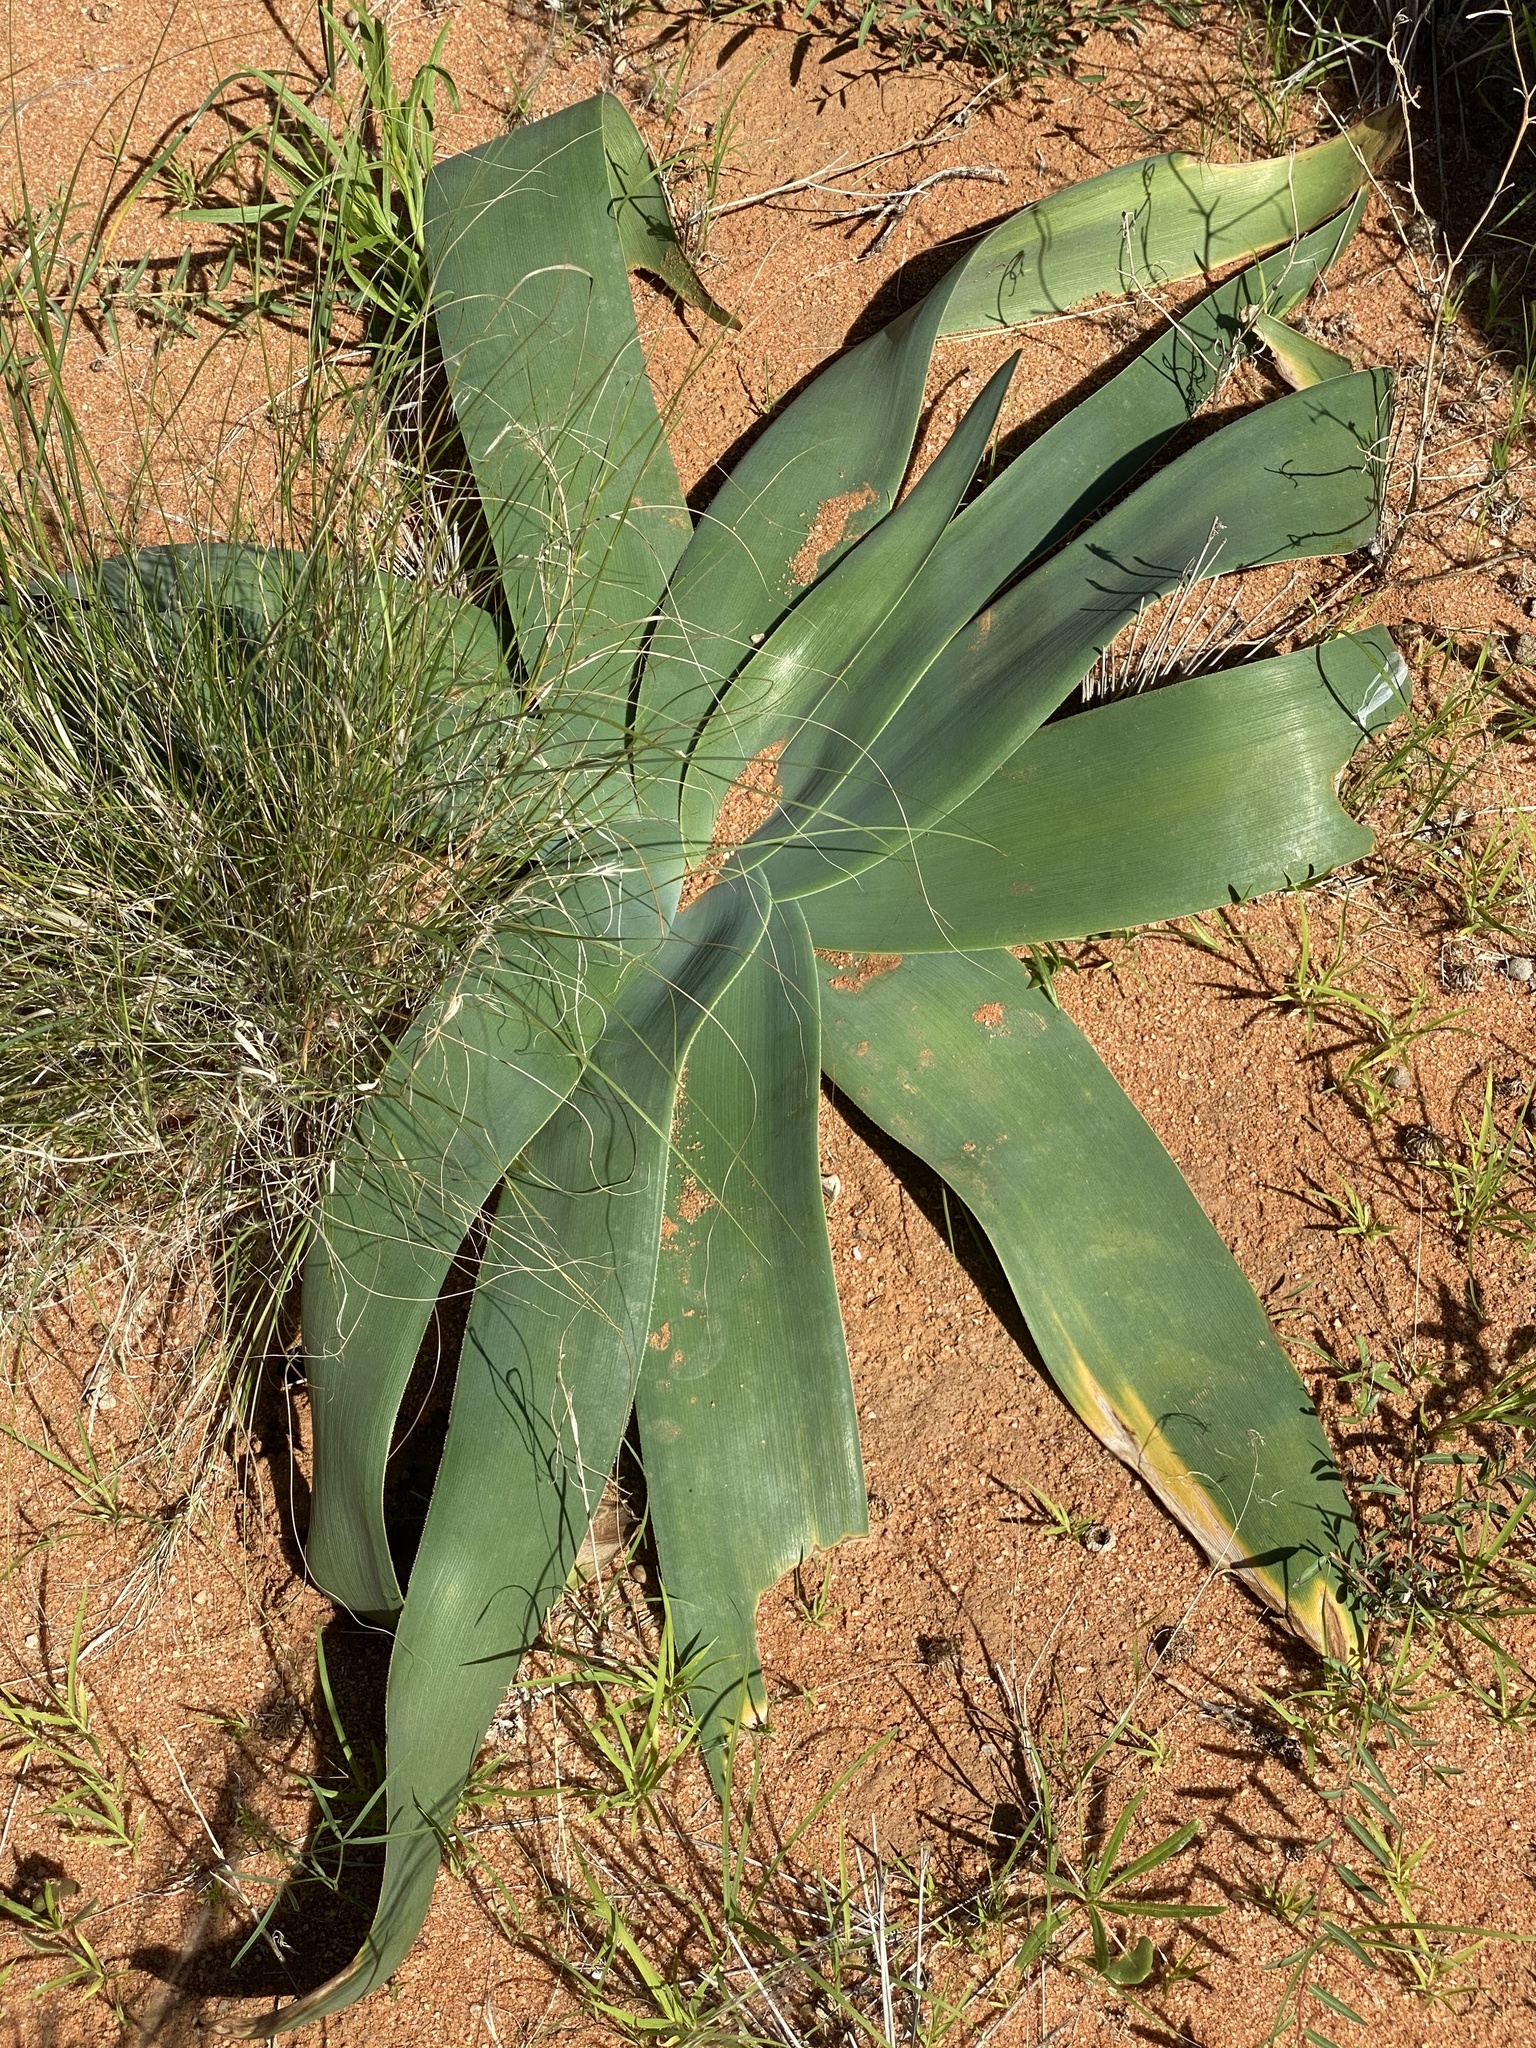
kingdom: Plantae
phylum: Tracheophyta
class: Liliopsida
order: Asparagales
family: Amaryllidaceae
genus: Ammocharis
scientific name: Ammocharis coranica
